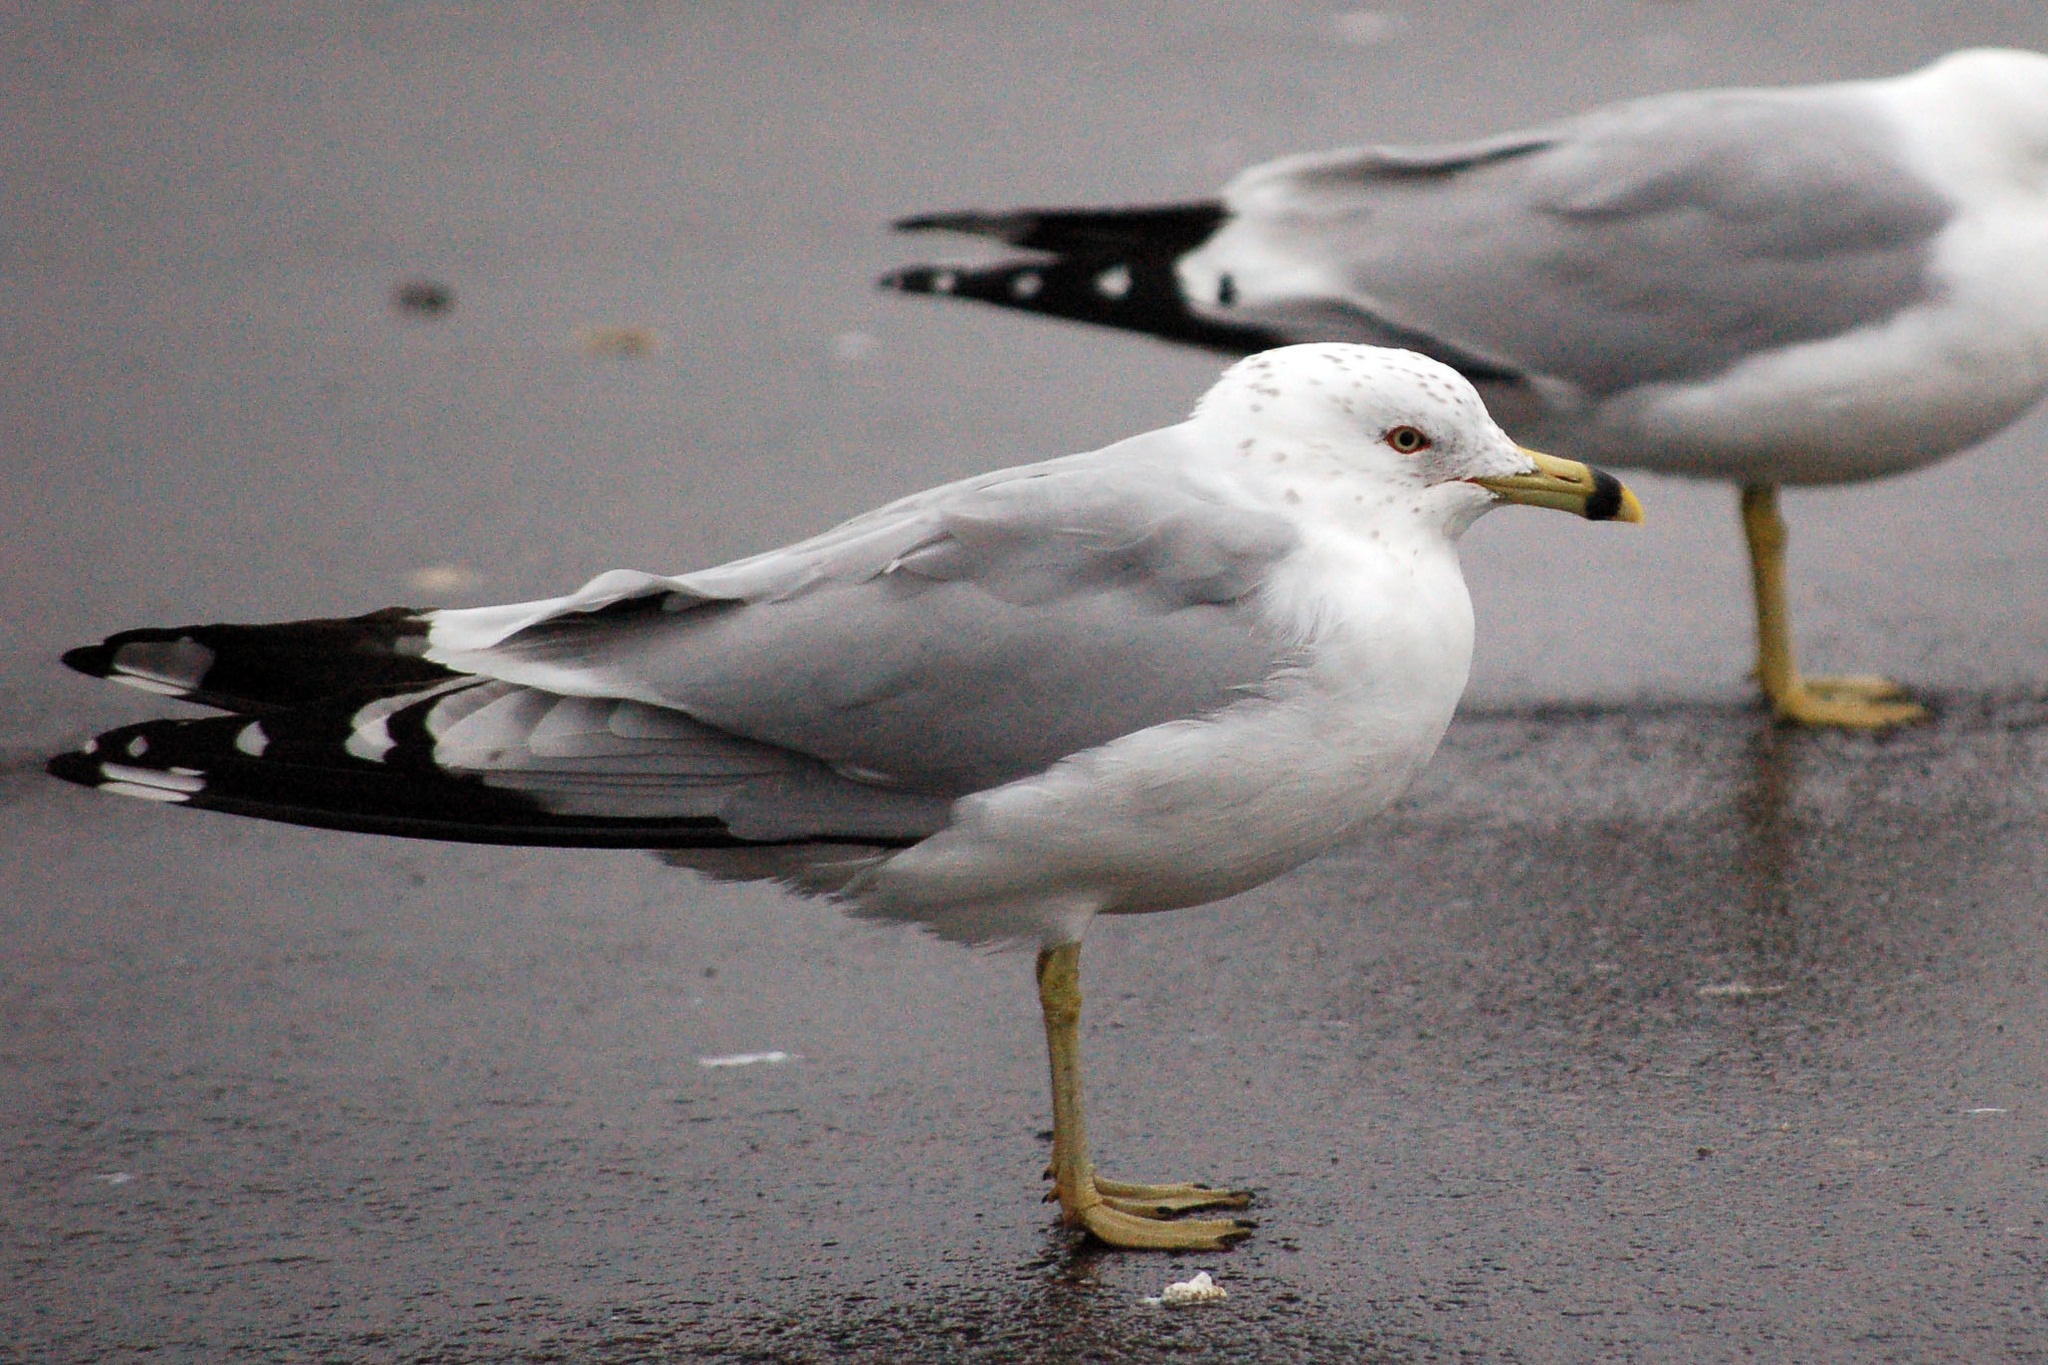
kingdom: Animalia
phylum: Chordata
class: Aves
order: Charadriiformes
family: Laridae
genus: Larus
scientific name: Larus delawarensis
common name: Ring-billed gull
